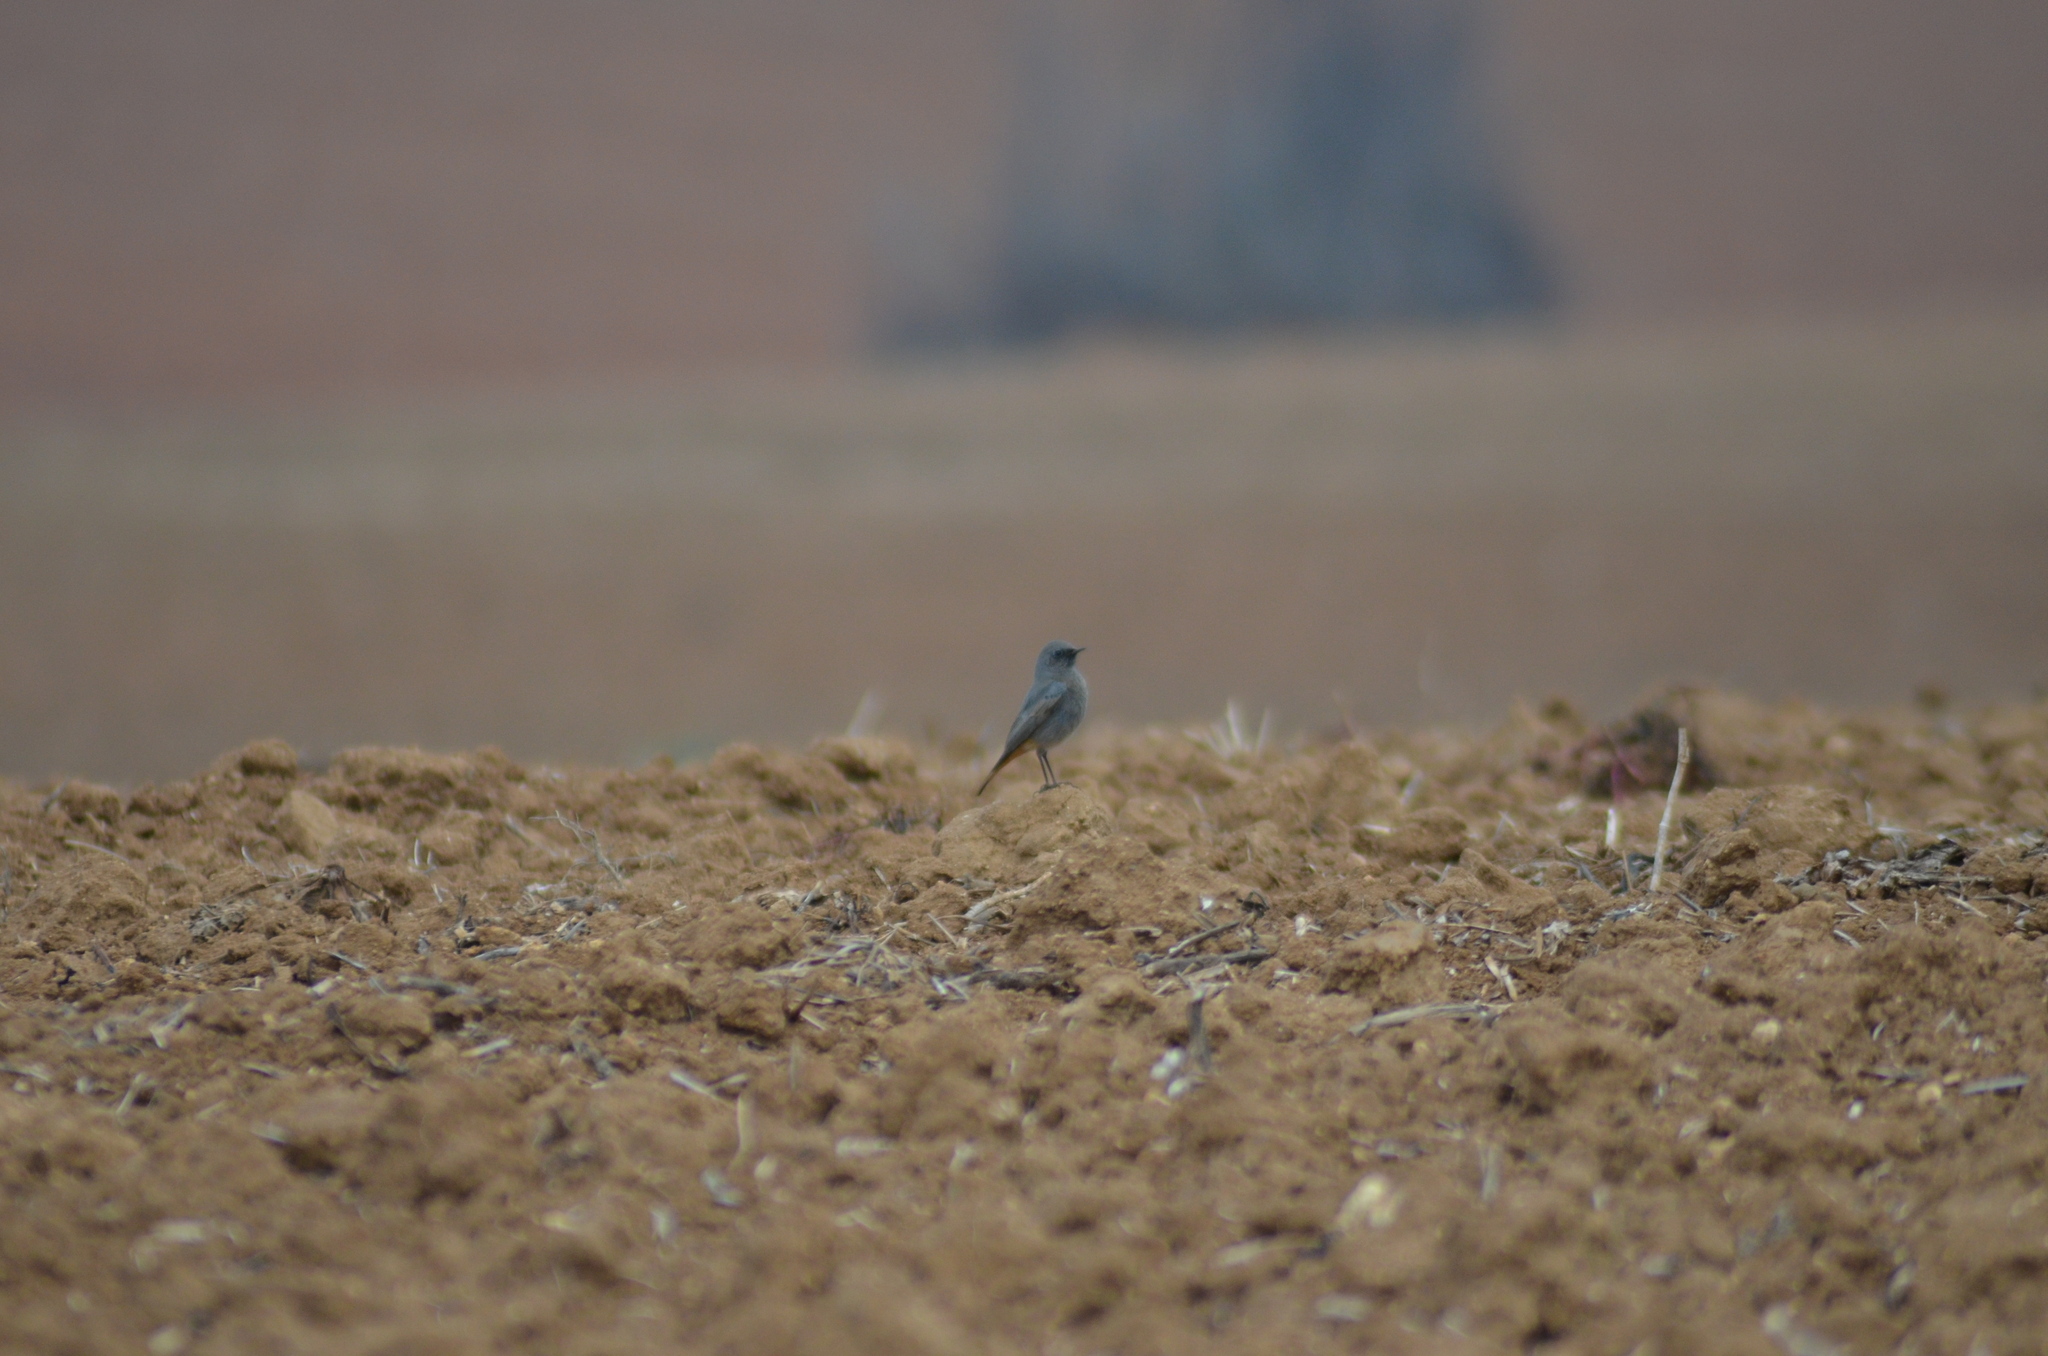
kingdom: Animalia
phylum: Chordata
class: Aves
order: Passeriformes
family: Muscicapidae
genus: Phoenicurus
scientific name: Phoenicurus ochruros
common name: Black redstart
